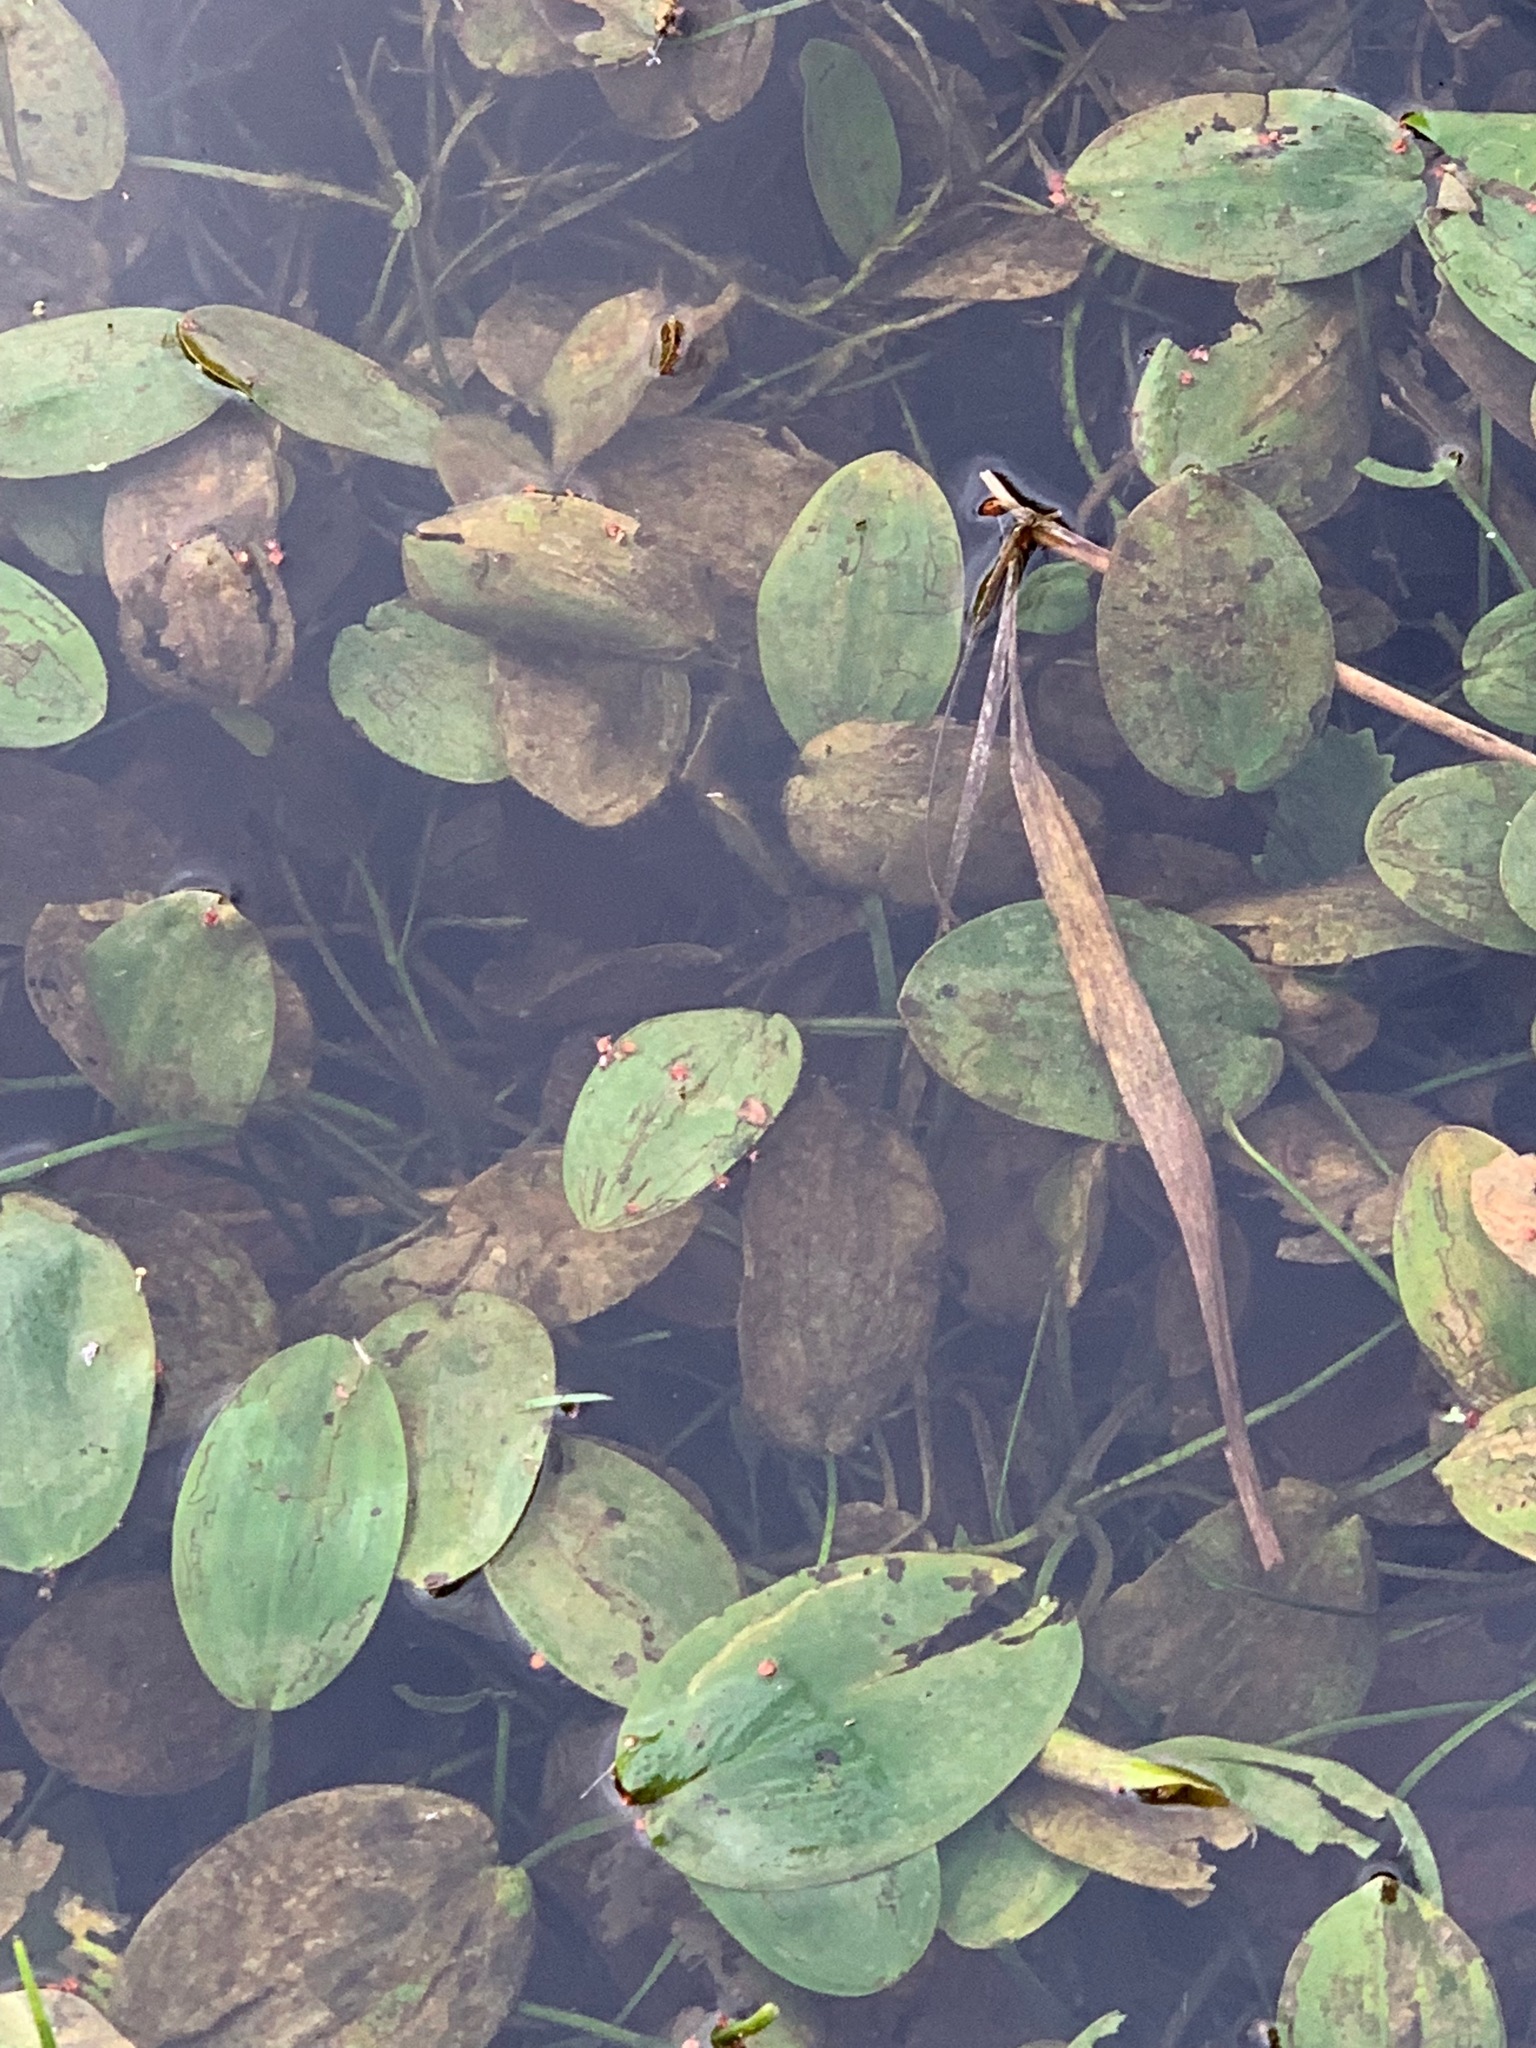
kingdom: Plantae
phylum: Tracheophyta
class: Liliopsida
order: Alismatales
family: Potamogetonaceae
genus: Potamogeton
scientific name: Potamogeton natans
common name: Broad-leaved pondweed
